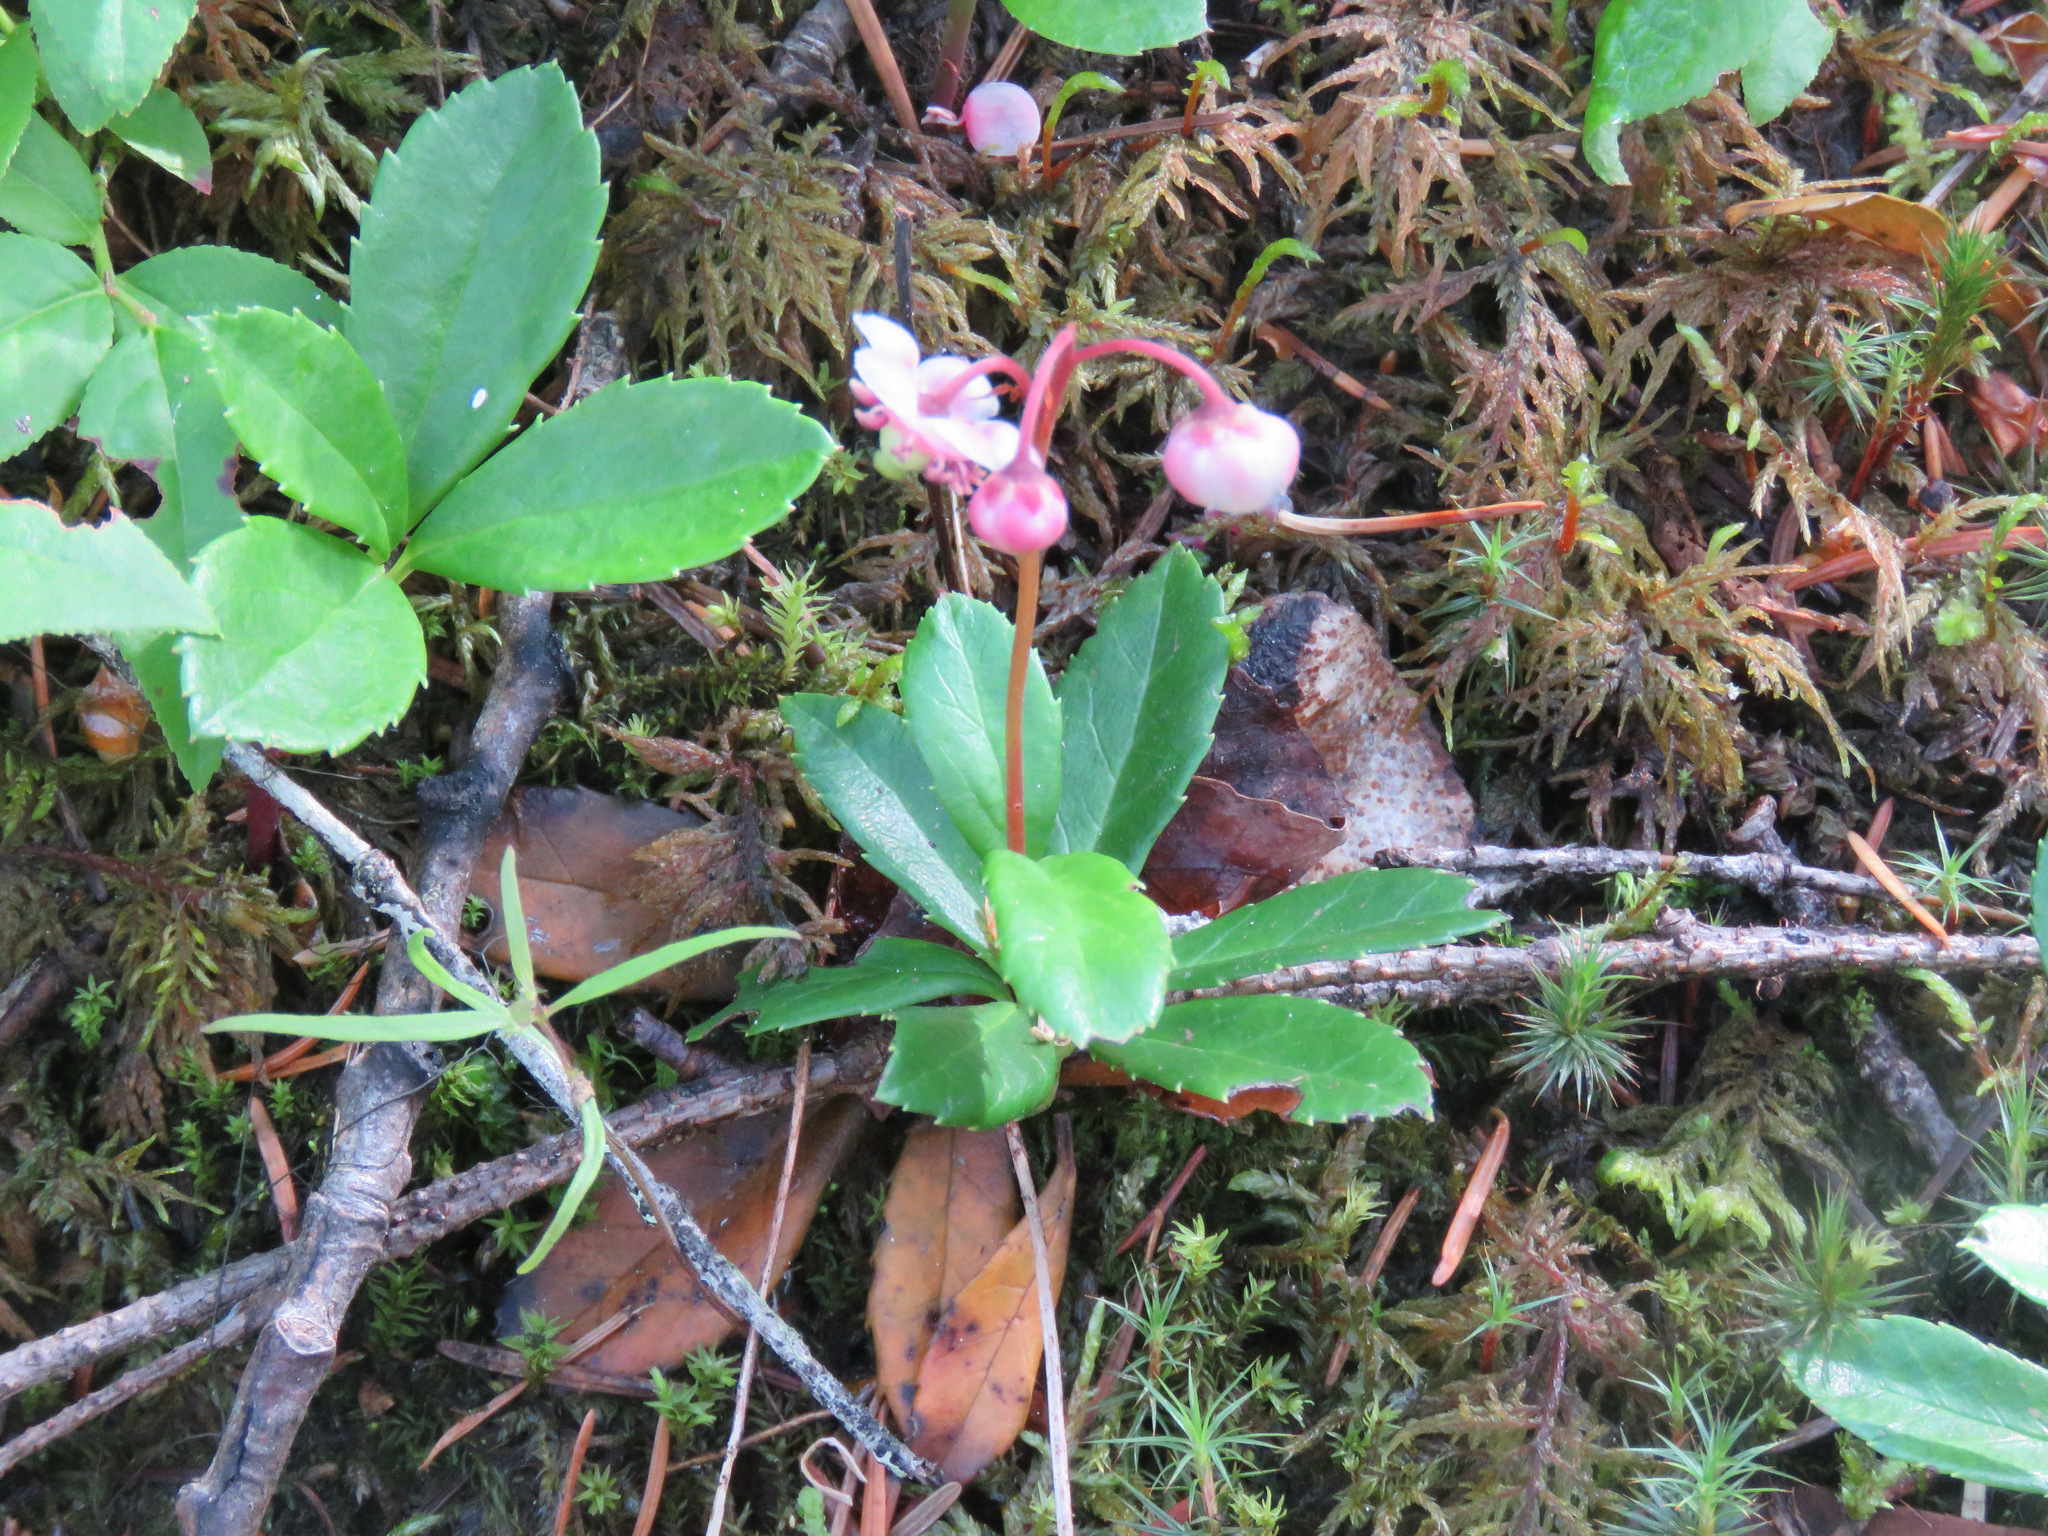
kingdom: Plantae
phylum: Tracheophyta
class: Magnoliopsida
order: Ericales
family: Ericaceae
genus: Chimaphila
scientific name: Chimaphila umbellata
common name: Pipsissewa
